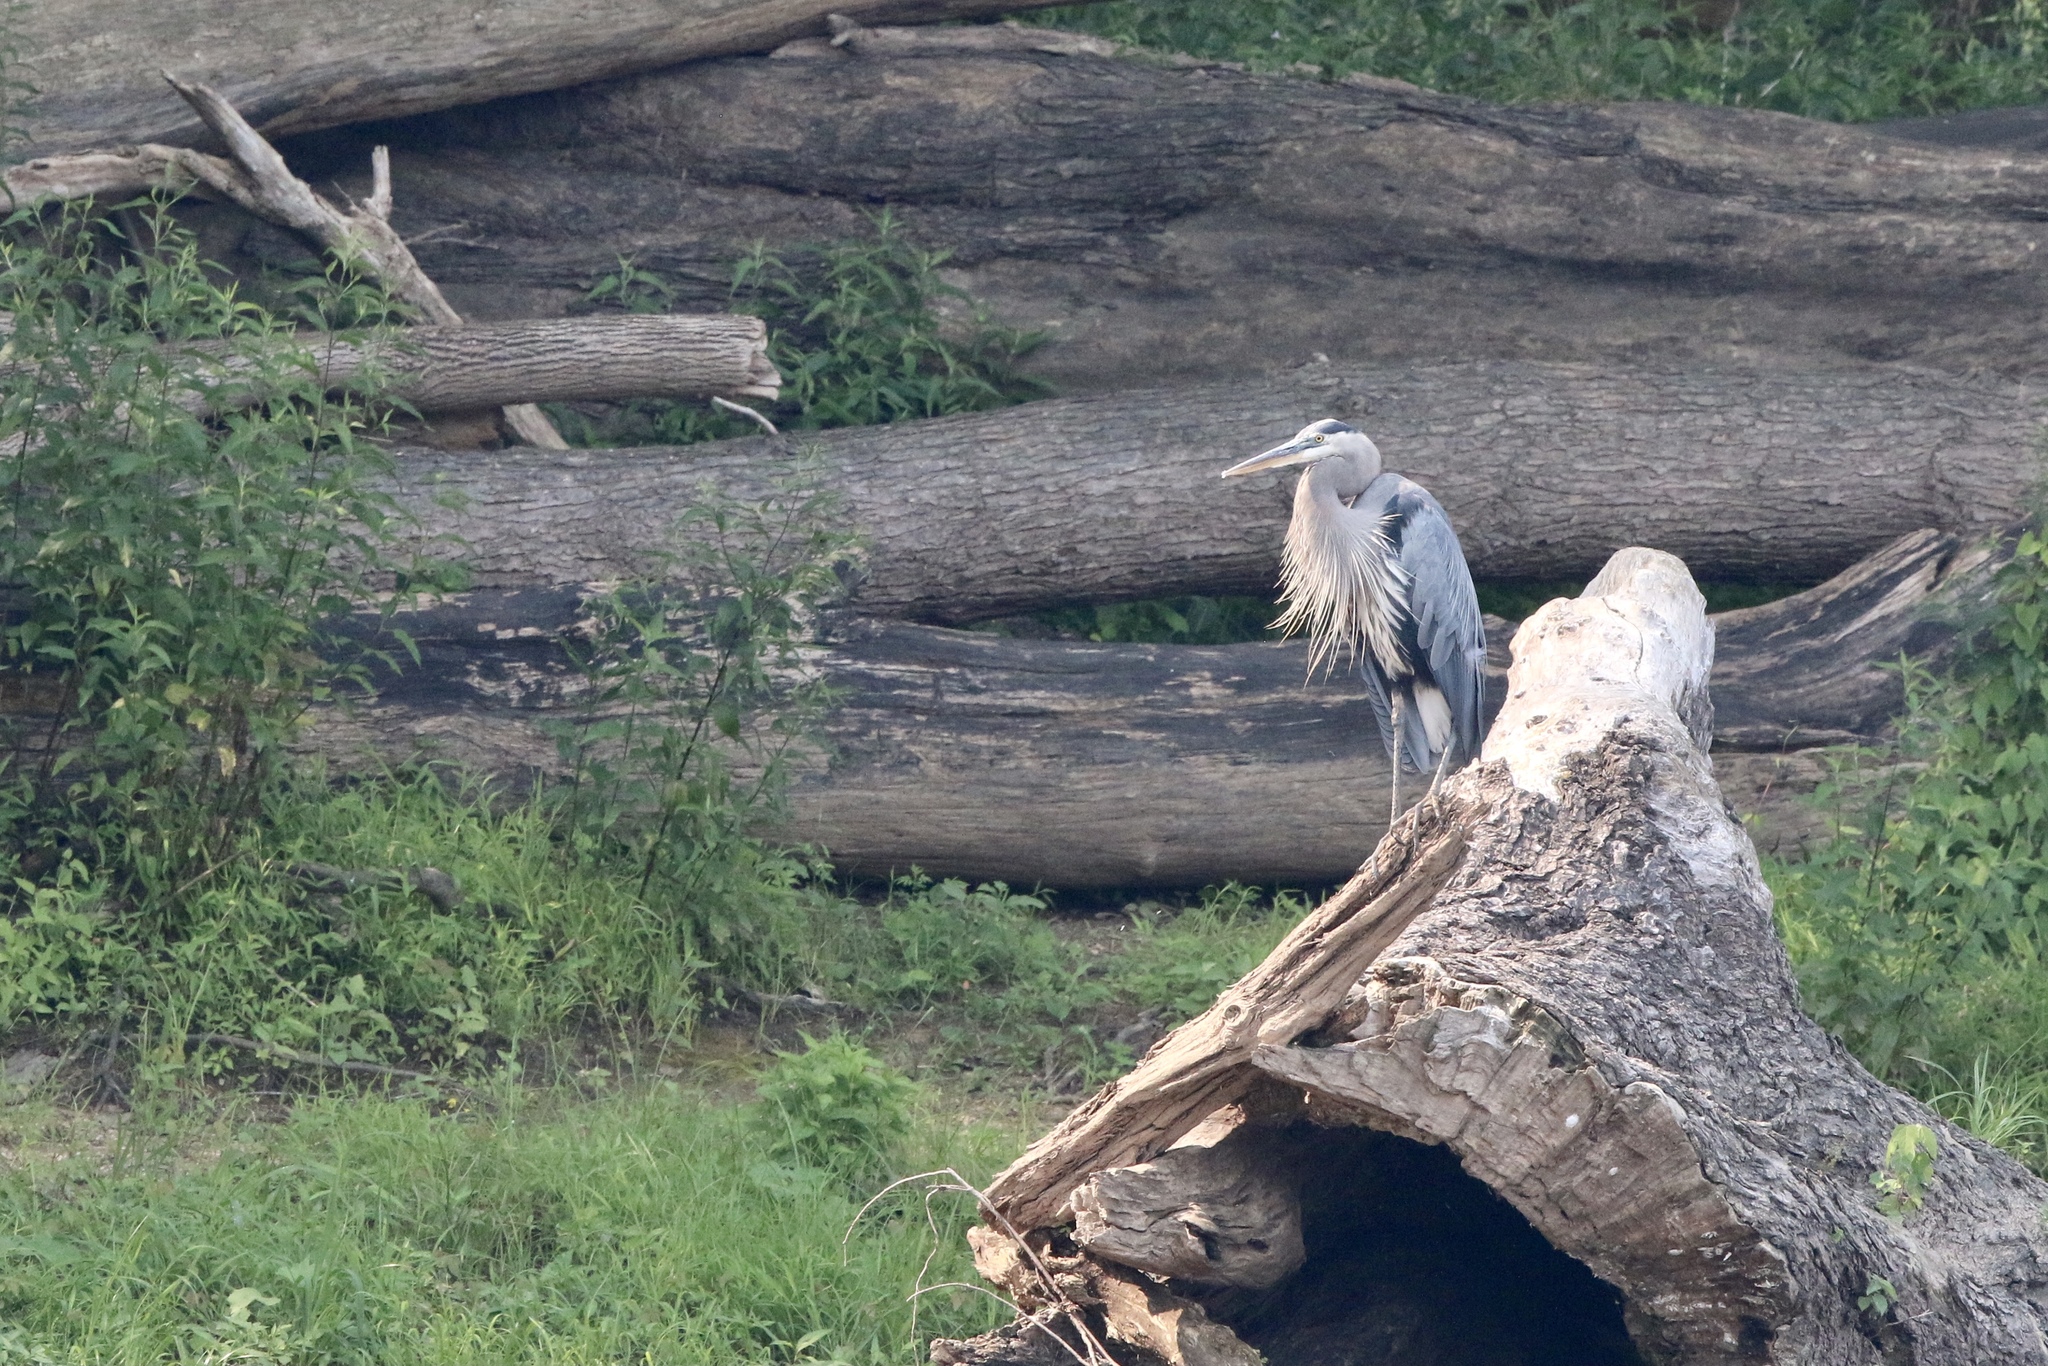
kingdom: Animalia
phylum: Chordata
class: Aves
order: Pelecaniformes
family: Ardeidae
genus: Ardea
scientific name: Ardea herodias
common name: Great blue heron
